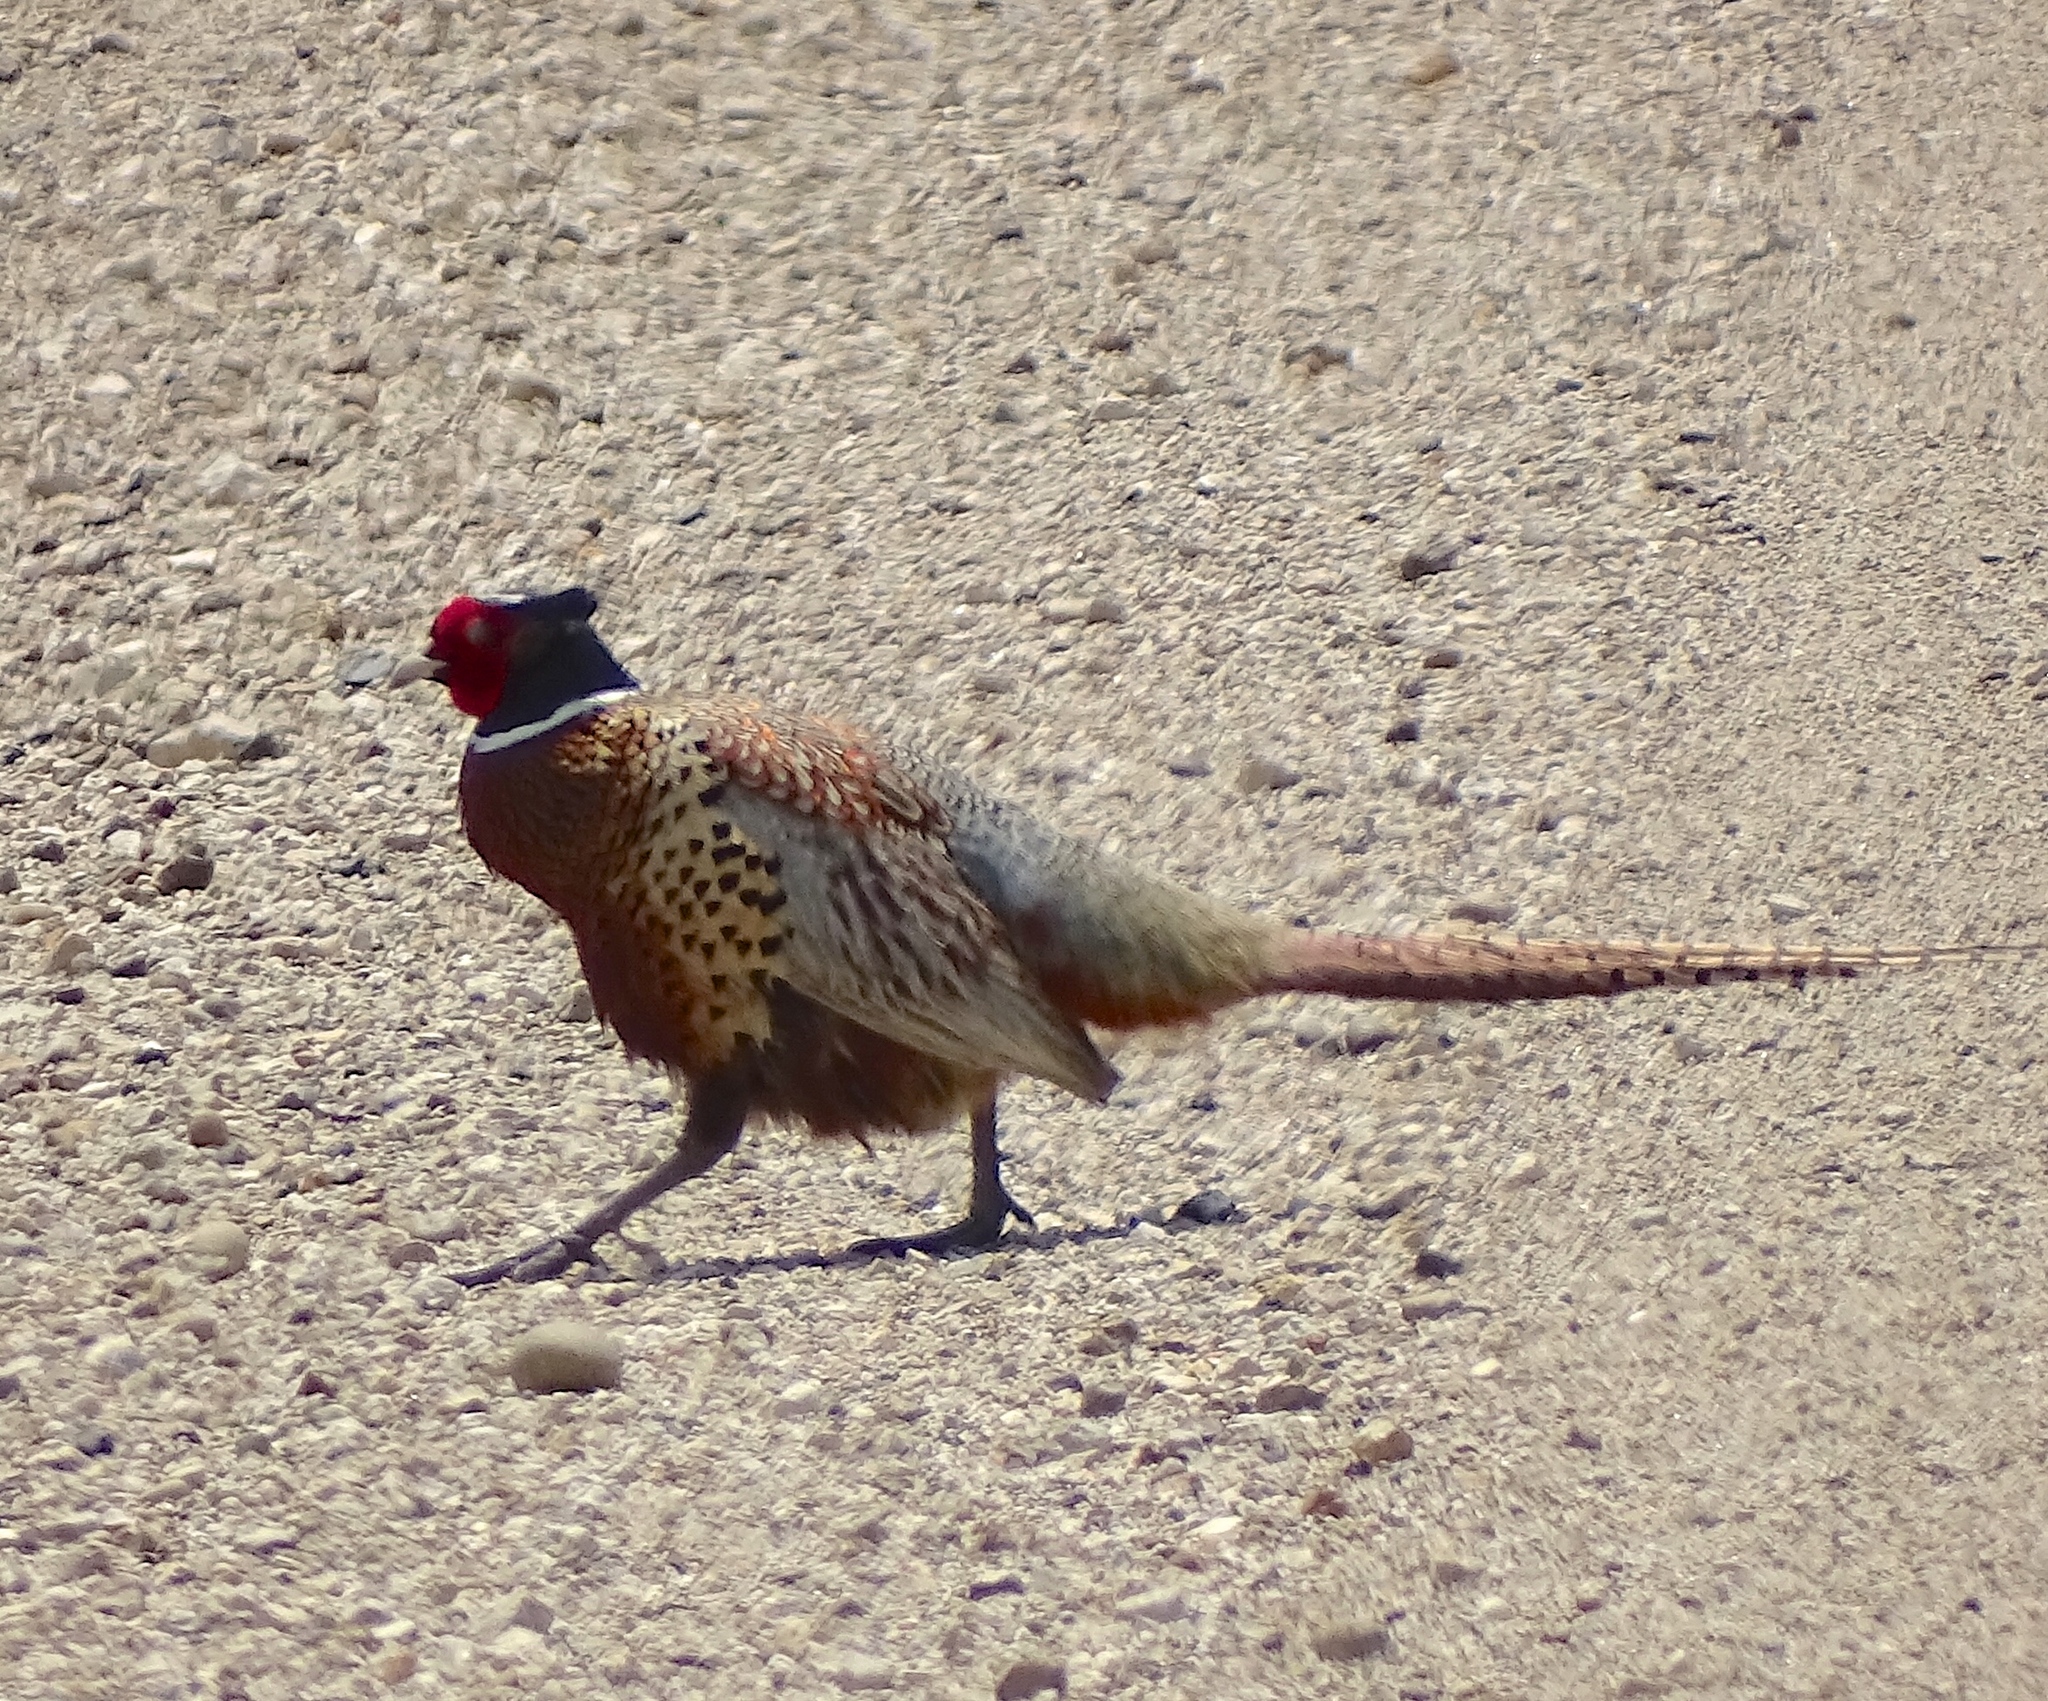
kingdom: Animalia
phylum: Chordata
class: Aves
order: Galliformes
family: Phasianidae
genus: Phasianus
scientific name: Phasianus colchicus
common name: Common pheasant
